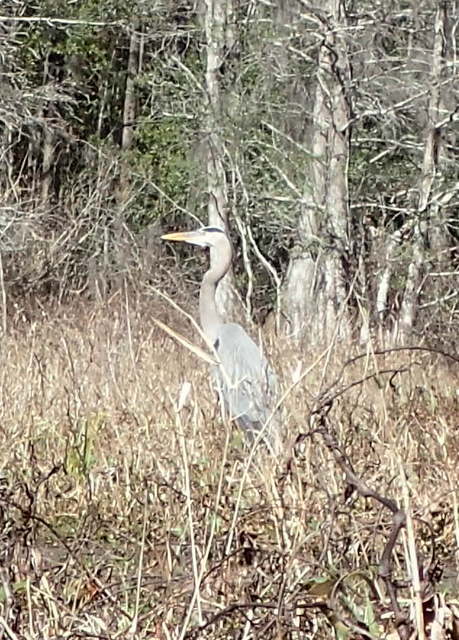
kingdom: Animalia
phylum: Chordata
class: Aves
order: Pelecaniformes
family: Ardeidae
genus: Ardea
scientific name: Ardea herodias
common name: Great blue heron
